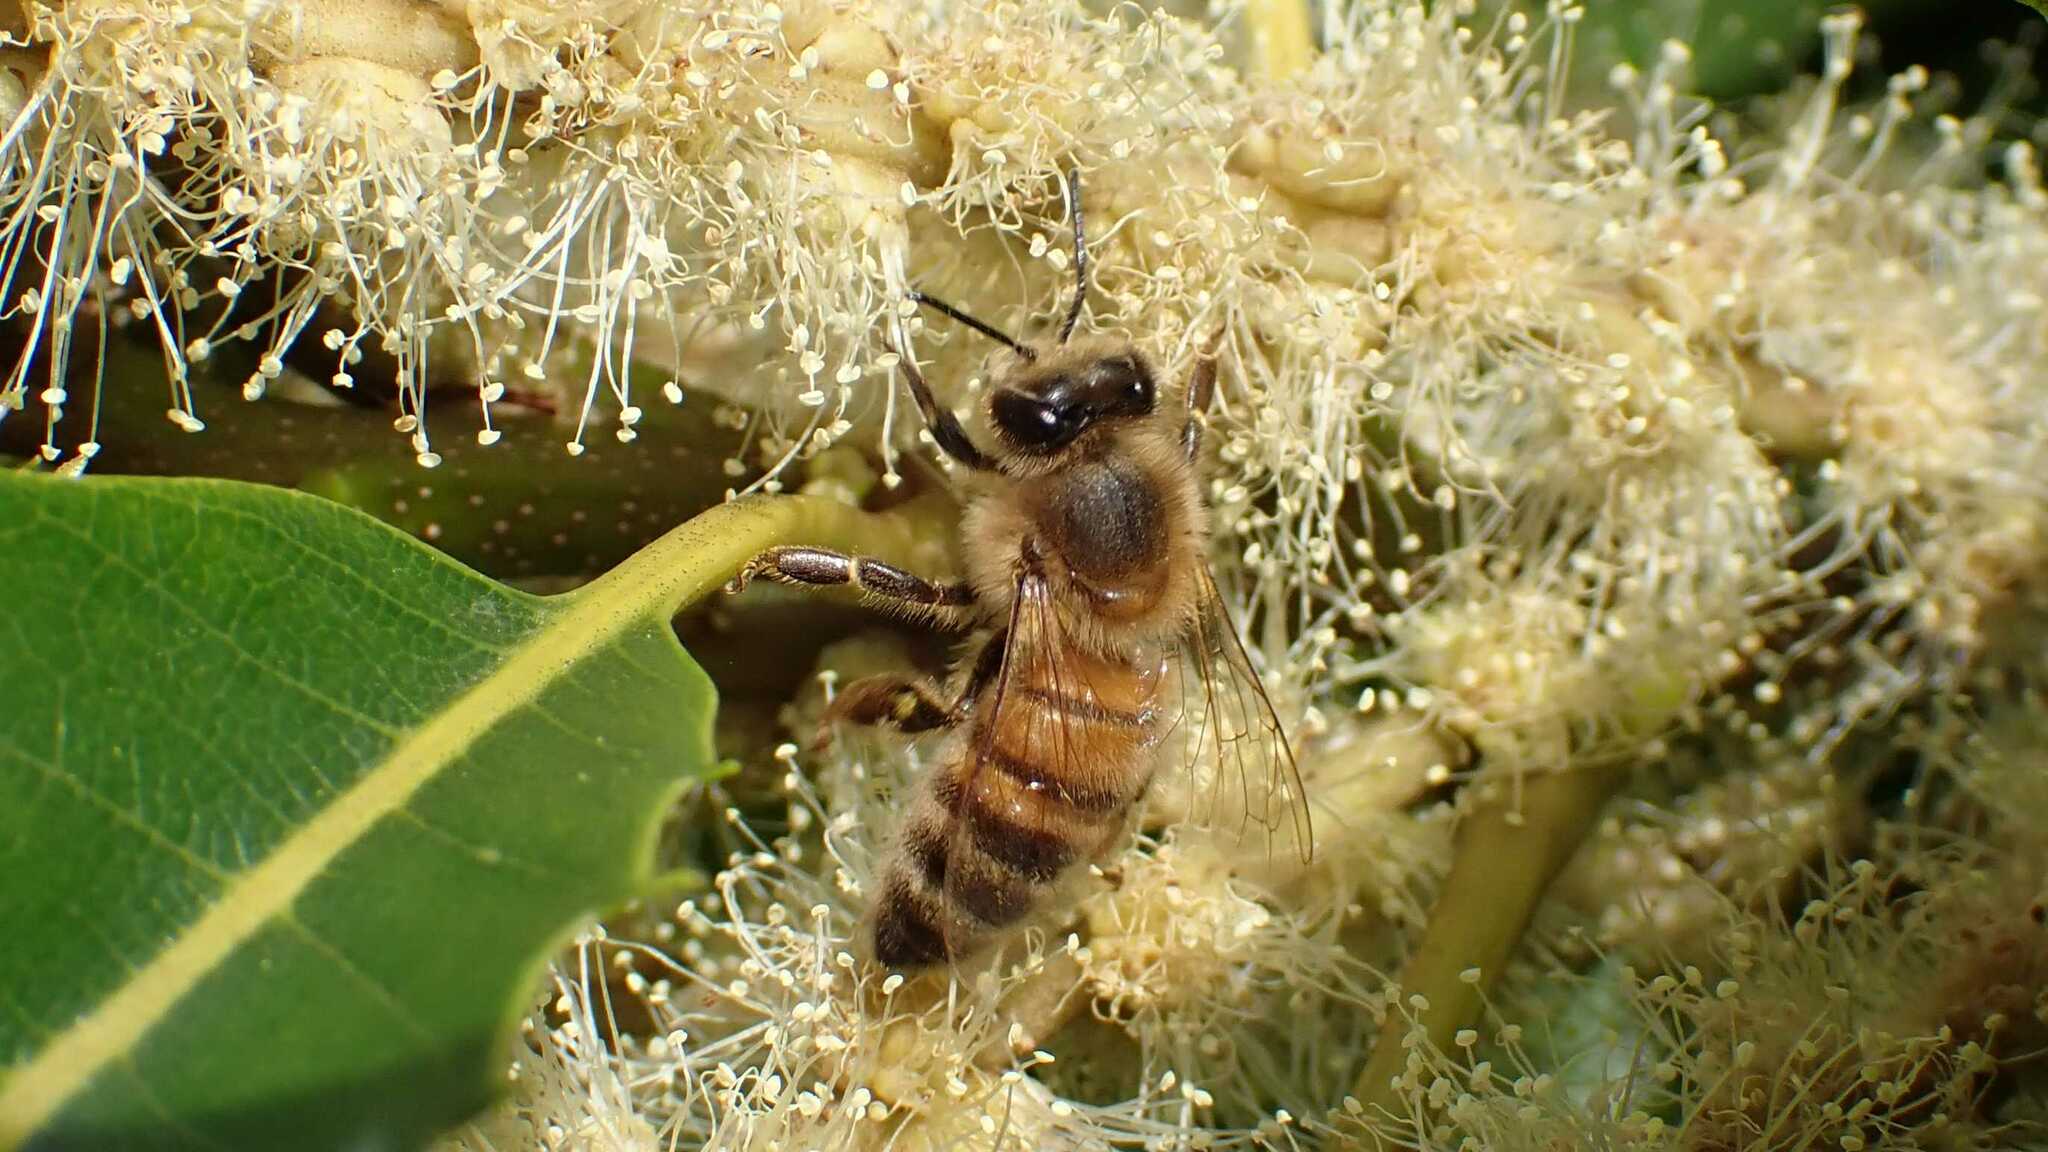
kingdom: Animalia
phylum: Arthropoda
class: Insecta
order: Hymenoptera
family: Apidae
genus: Apis
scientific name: Apis mellifera
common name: Honey bee
